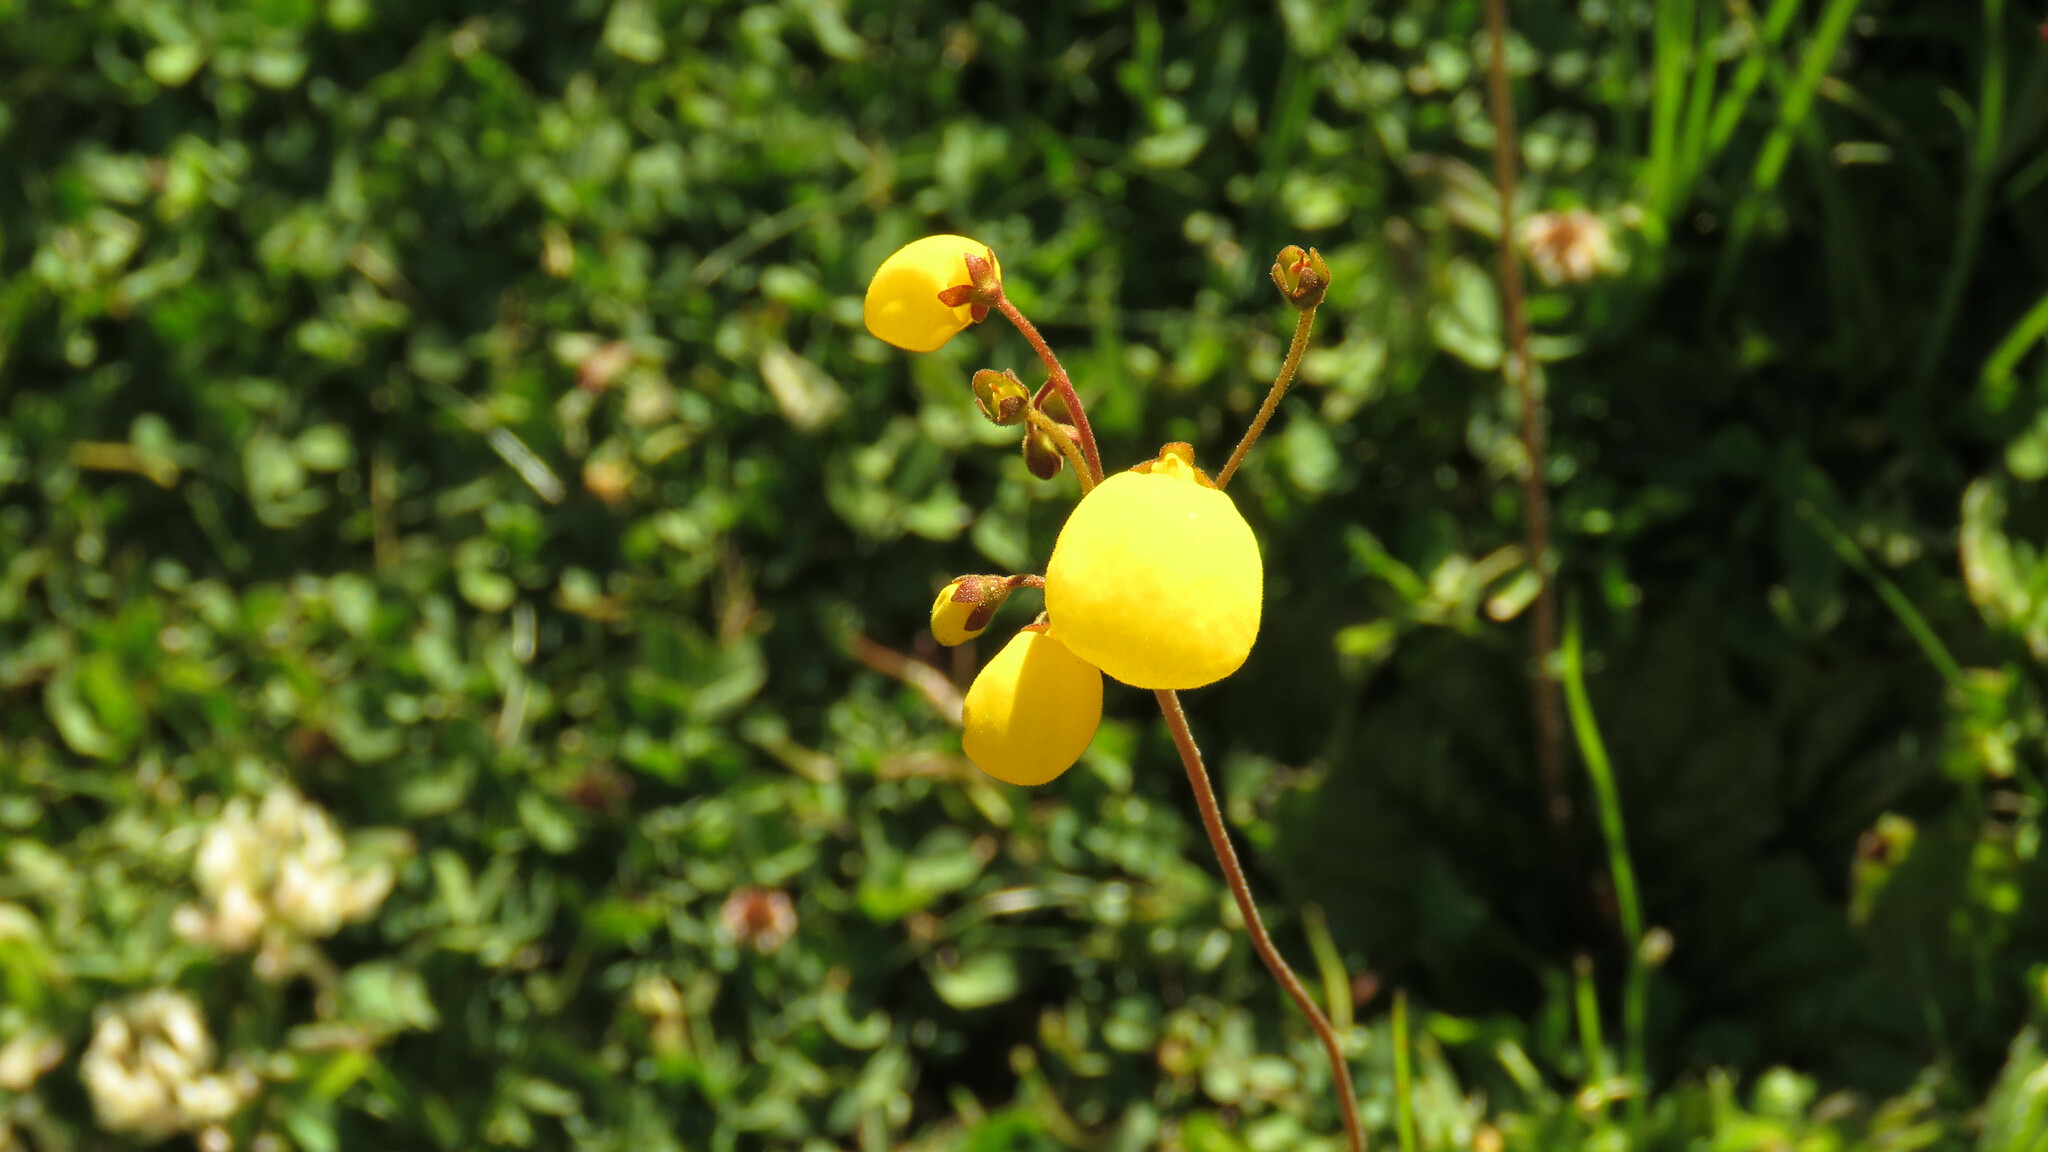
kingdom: Plantae
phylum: Tracheophyta
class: Magnoliopsida
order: Lamiales
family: Calceolariaceae
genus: Calceolaria
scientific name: Calceolaria filicaulis
